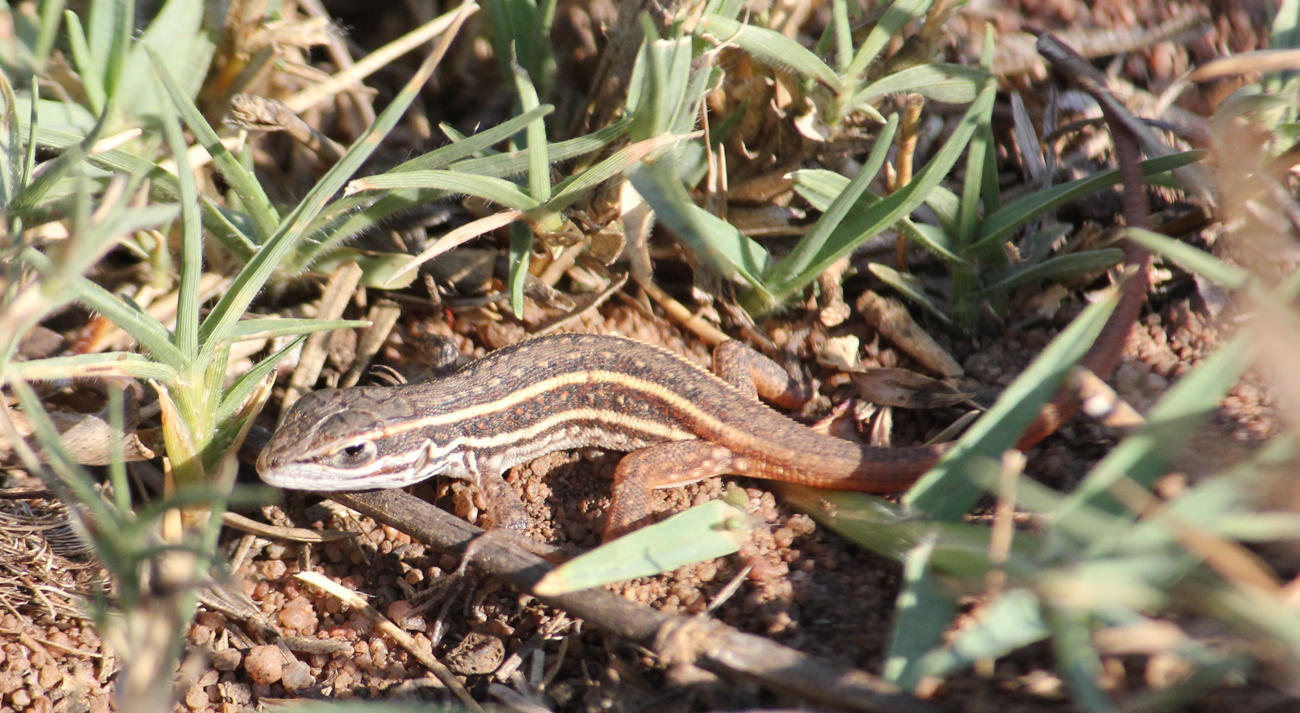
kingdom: Animalia
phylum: Chordata
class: Squamata
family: Lacertidae
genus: Meroles
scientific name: Meroles squamulosus
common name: Common desert lizard
